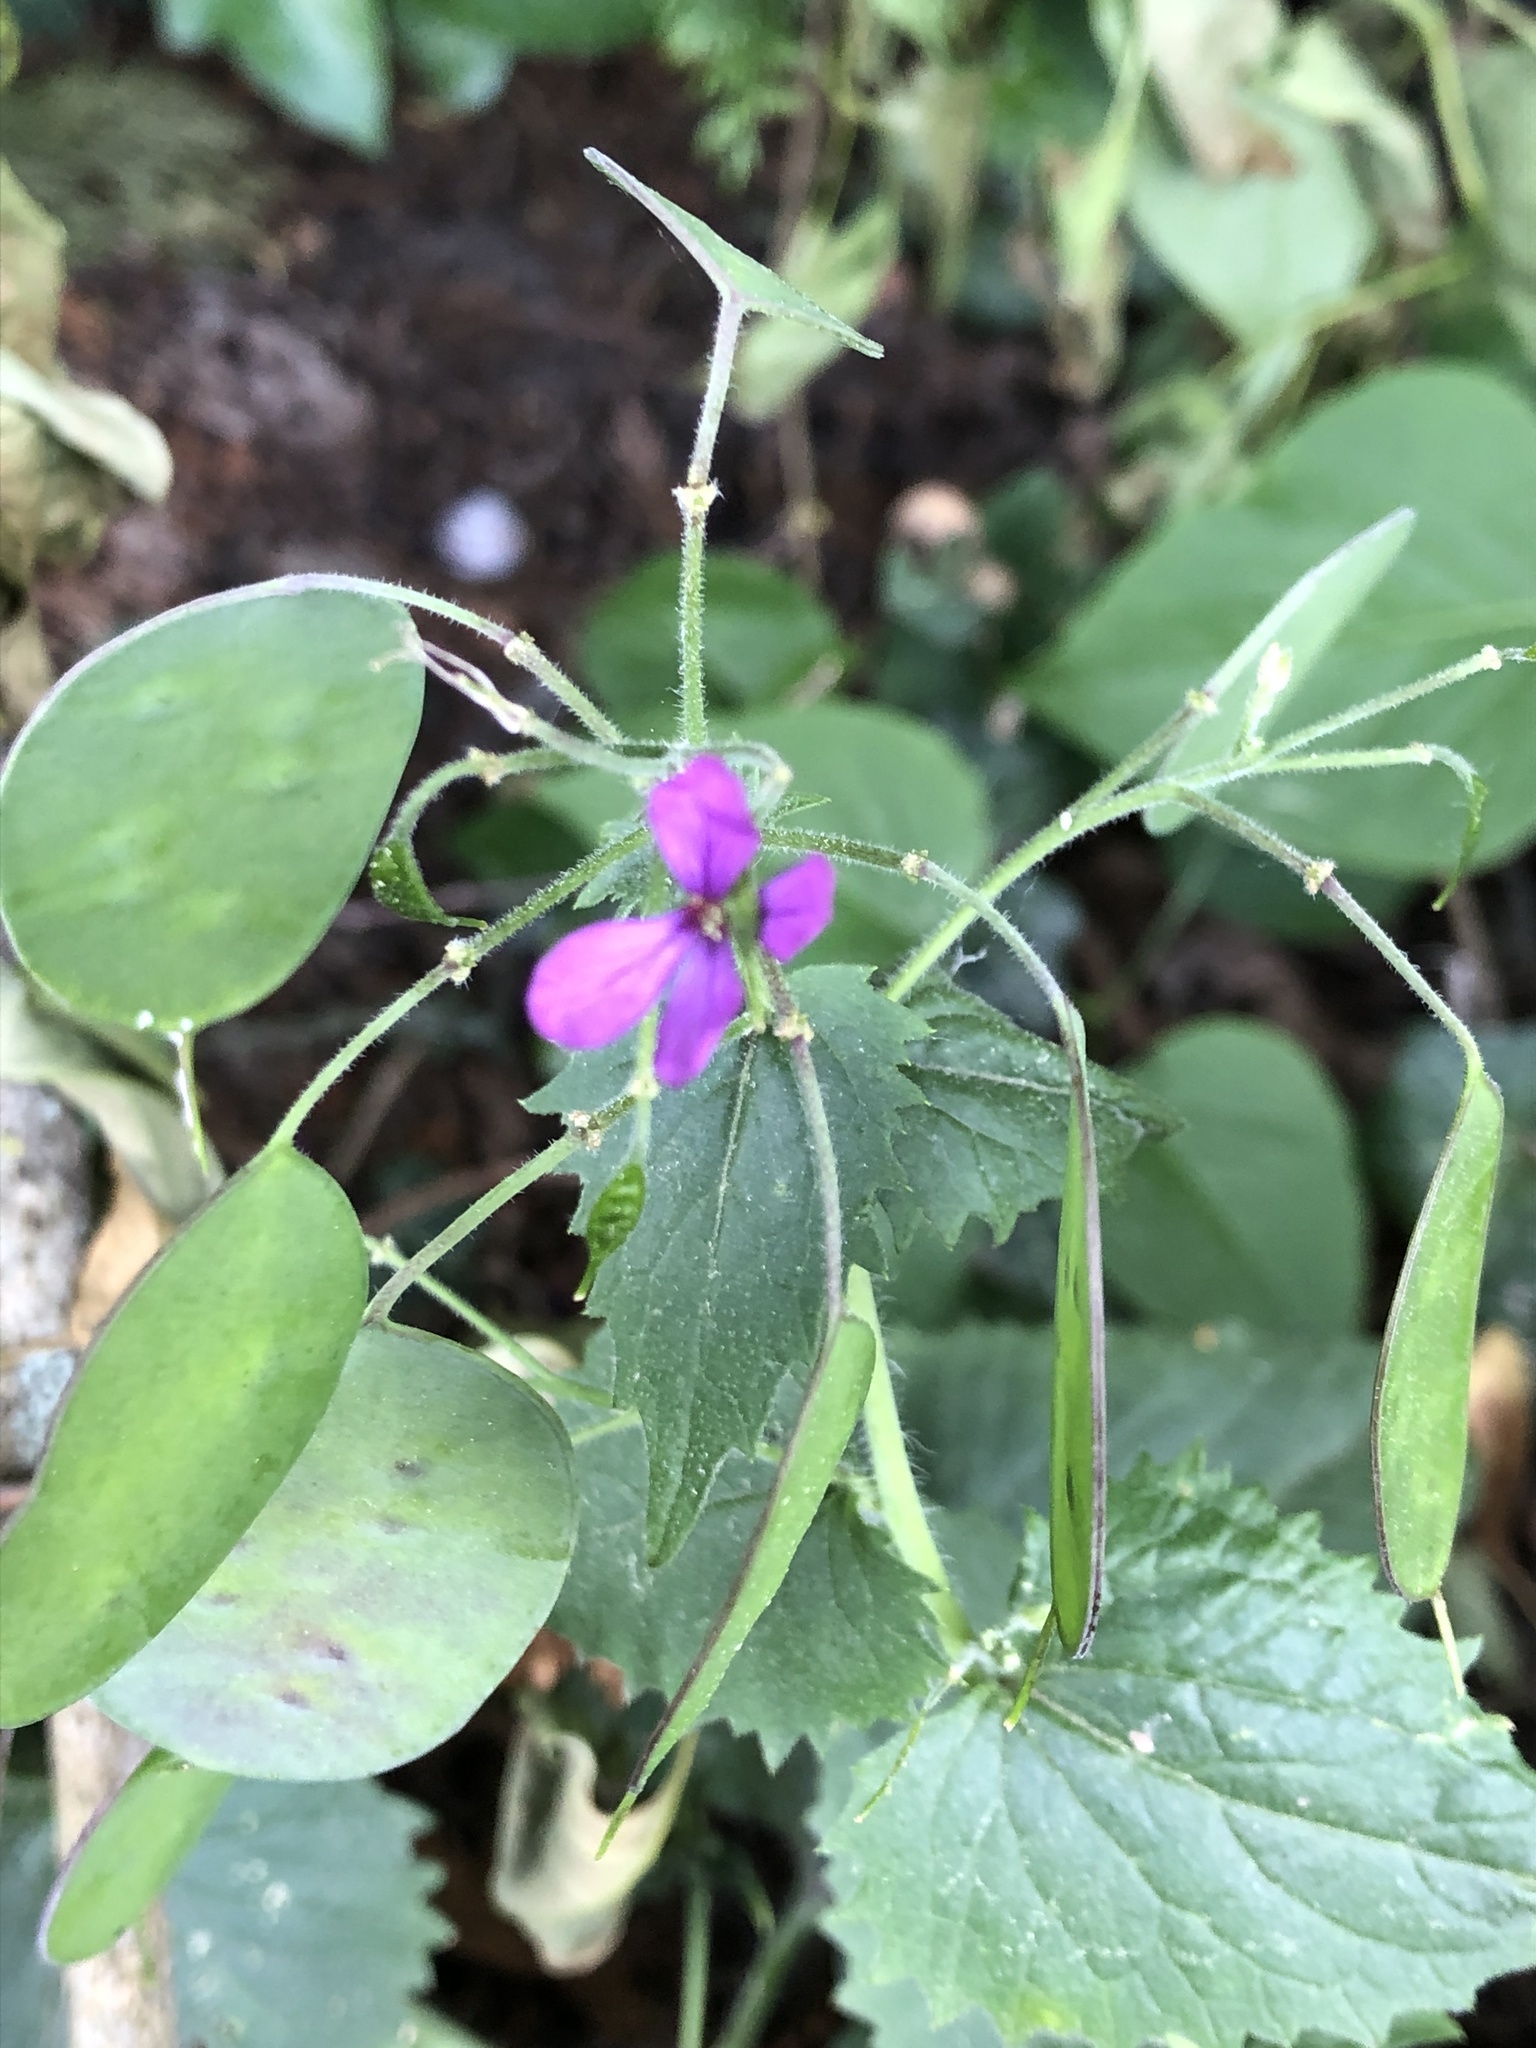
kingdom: Plantae
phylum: Tracheophyta
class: Magnoliopsida
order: Brassicales
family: Brassicaceae
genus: Lunaria
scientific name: Lunaria annua
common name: Honesty
